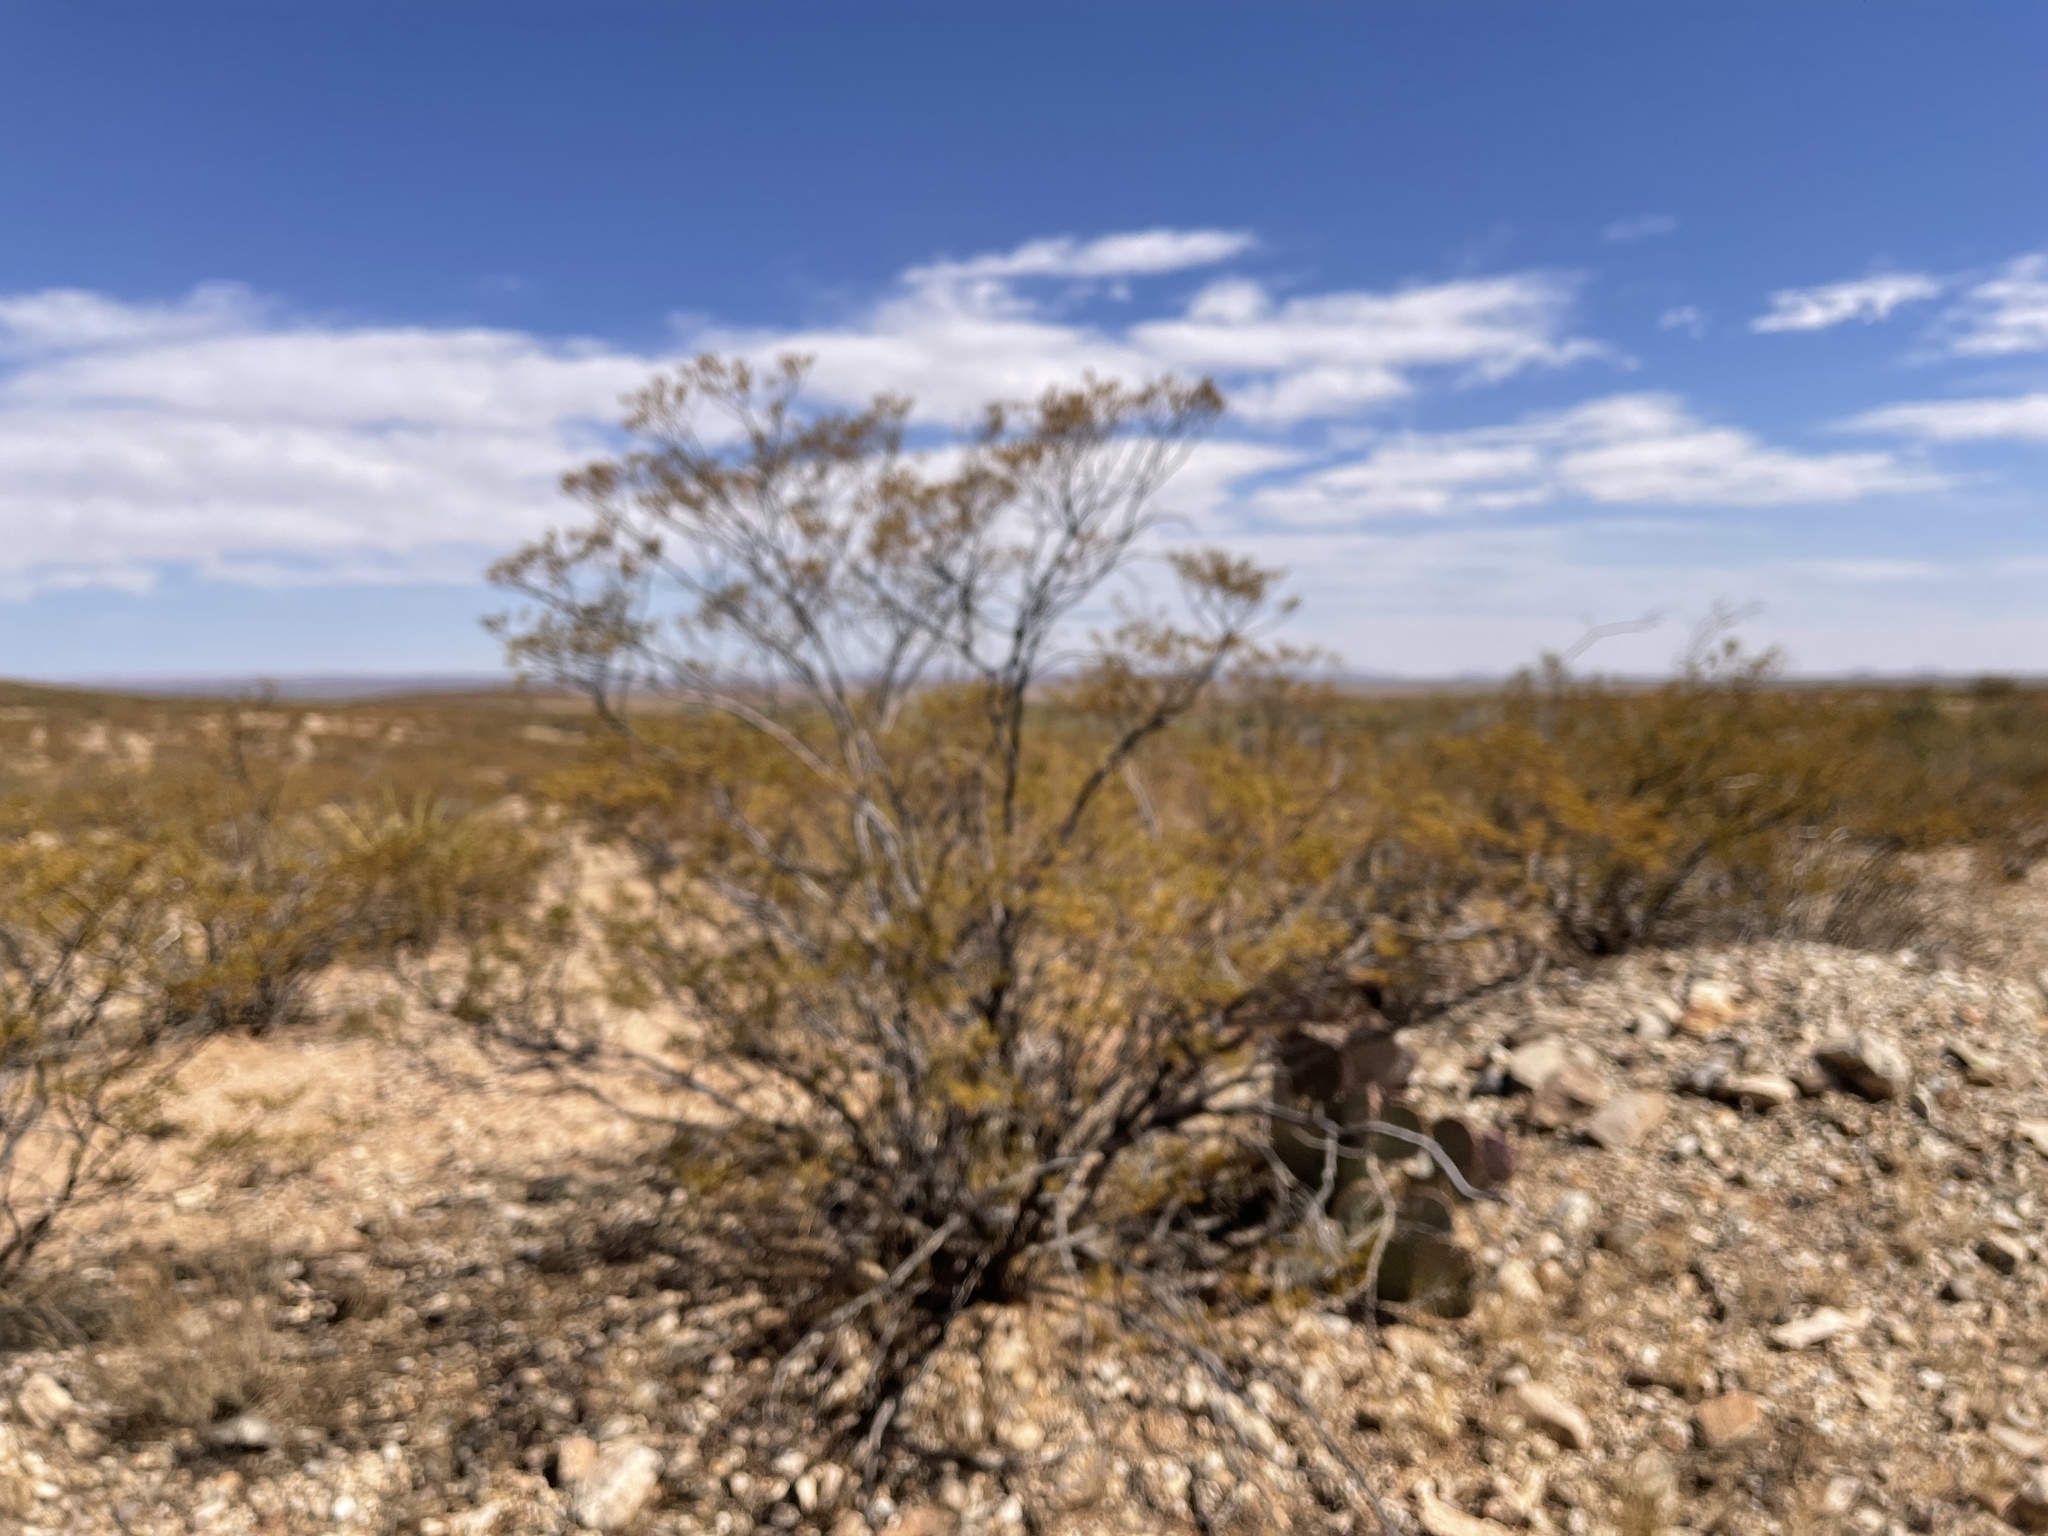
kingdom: Plantae
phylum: Tracheophyta
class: Magnoliopsida
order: Zygophyllales
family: Zygophyllaceae
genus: Larrea
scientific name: Larrea tridentata
